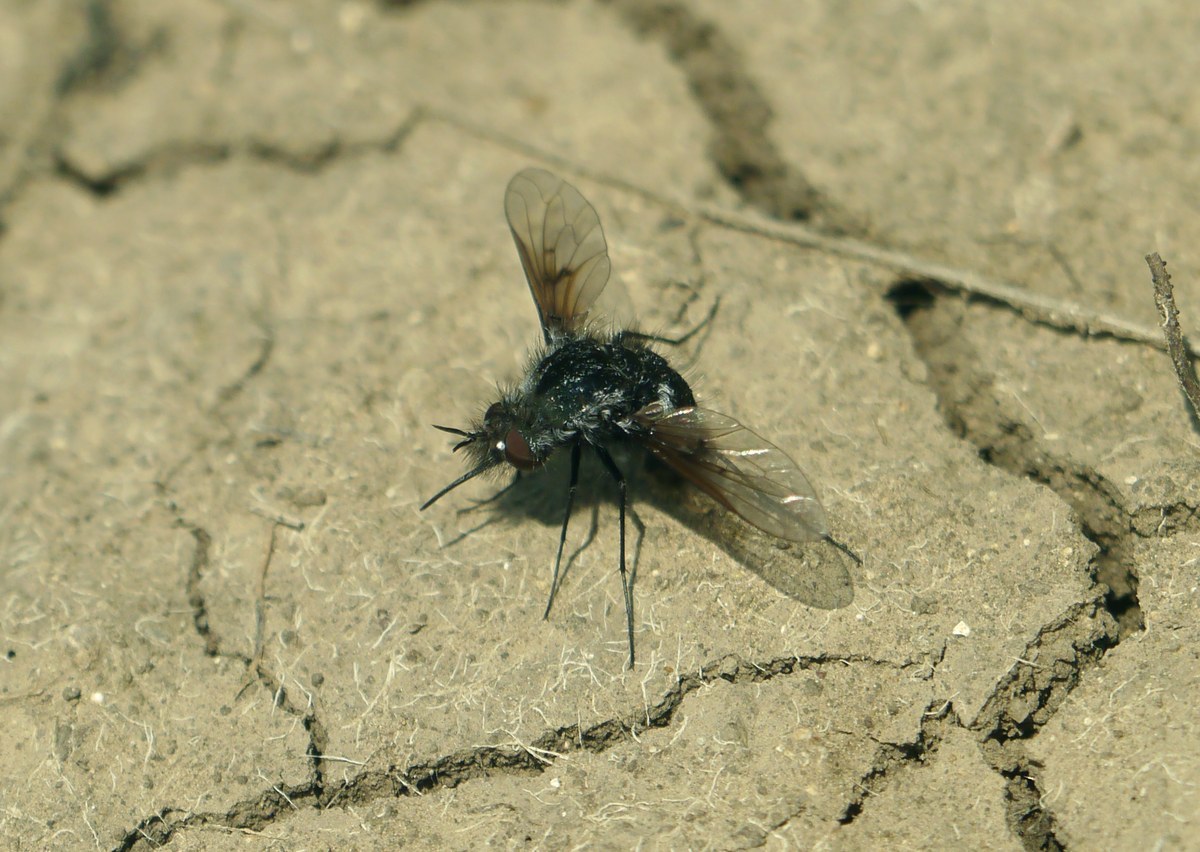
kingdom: Animalia
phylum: Arthropoda
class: Insecta
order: Diptera
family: Bombyliidae
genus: Bombylella
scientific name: Bombylella atra
